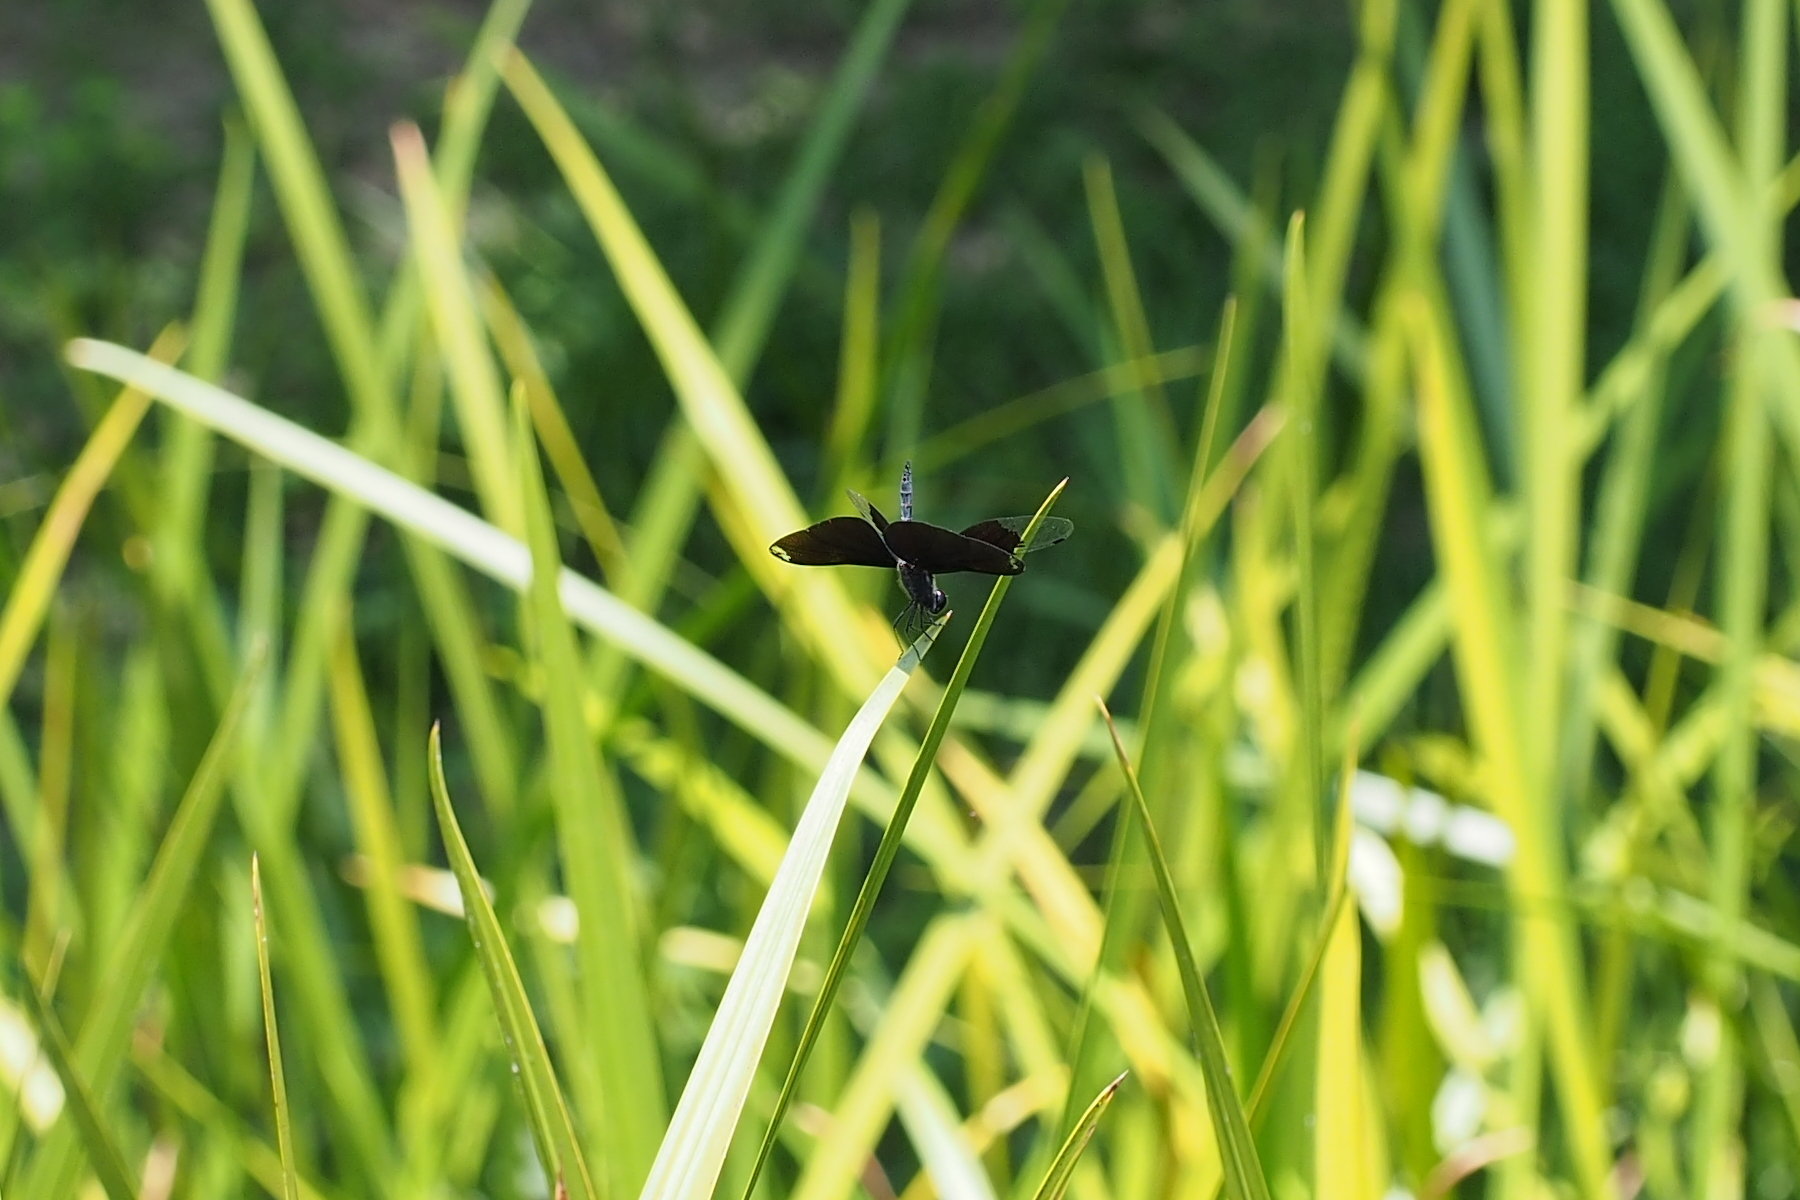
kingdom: Animalia
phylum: Arthropoda
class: Insecta
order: Odonata
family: Libellulidae
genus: Rhyothemis
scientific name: Rhyothemis fuliginosa
